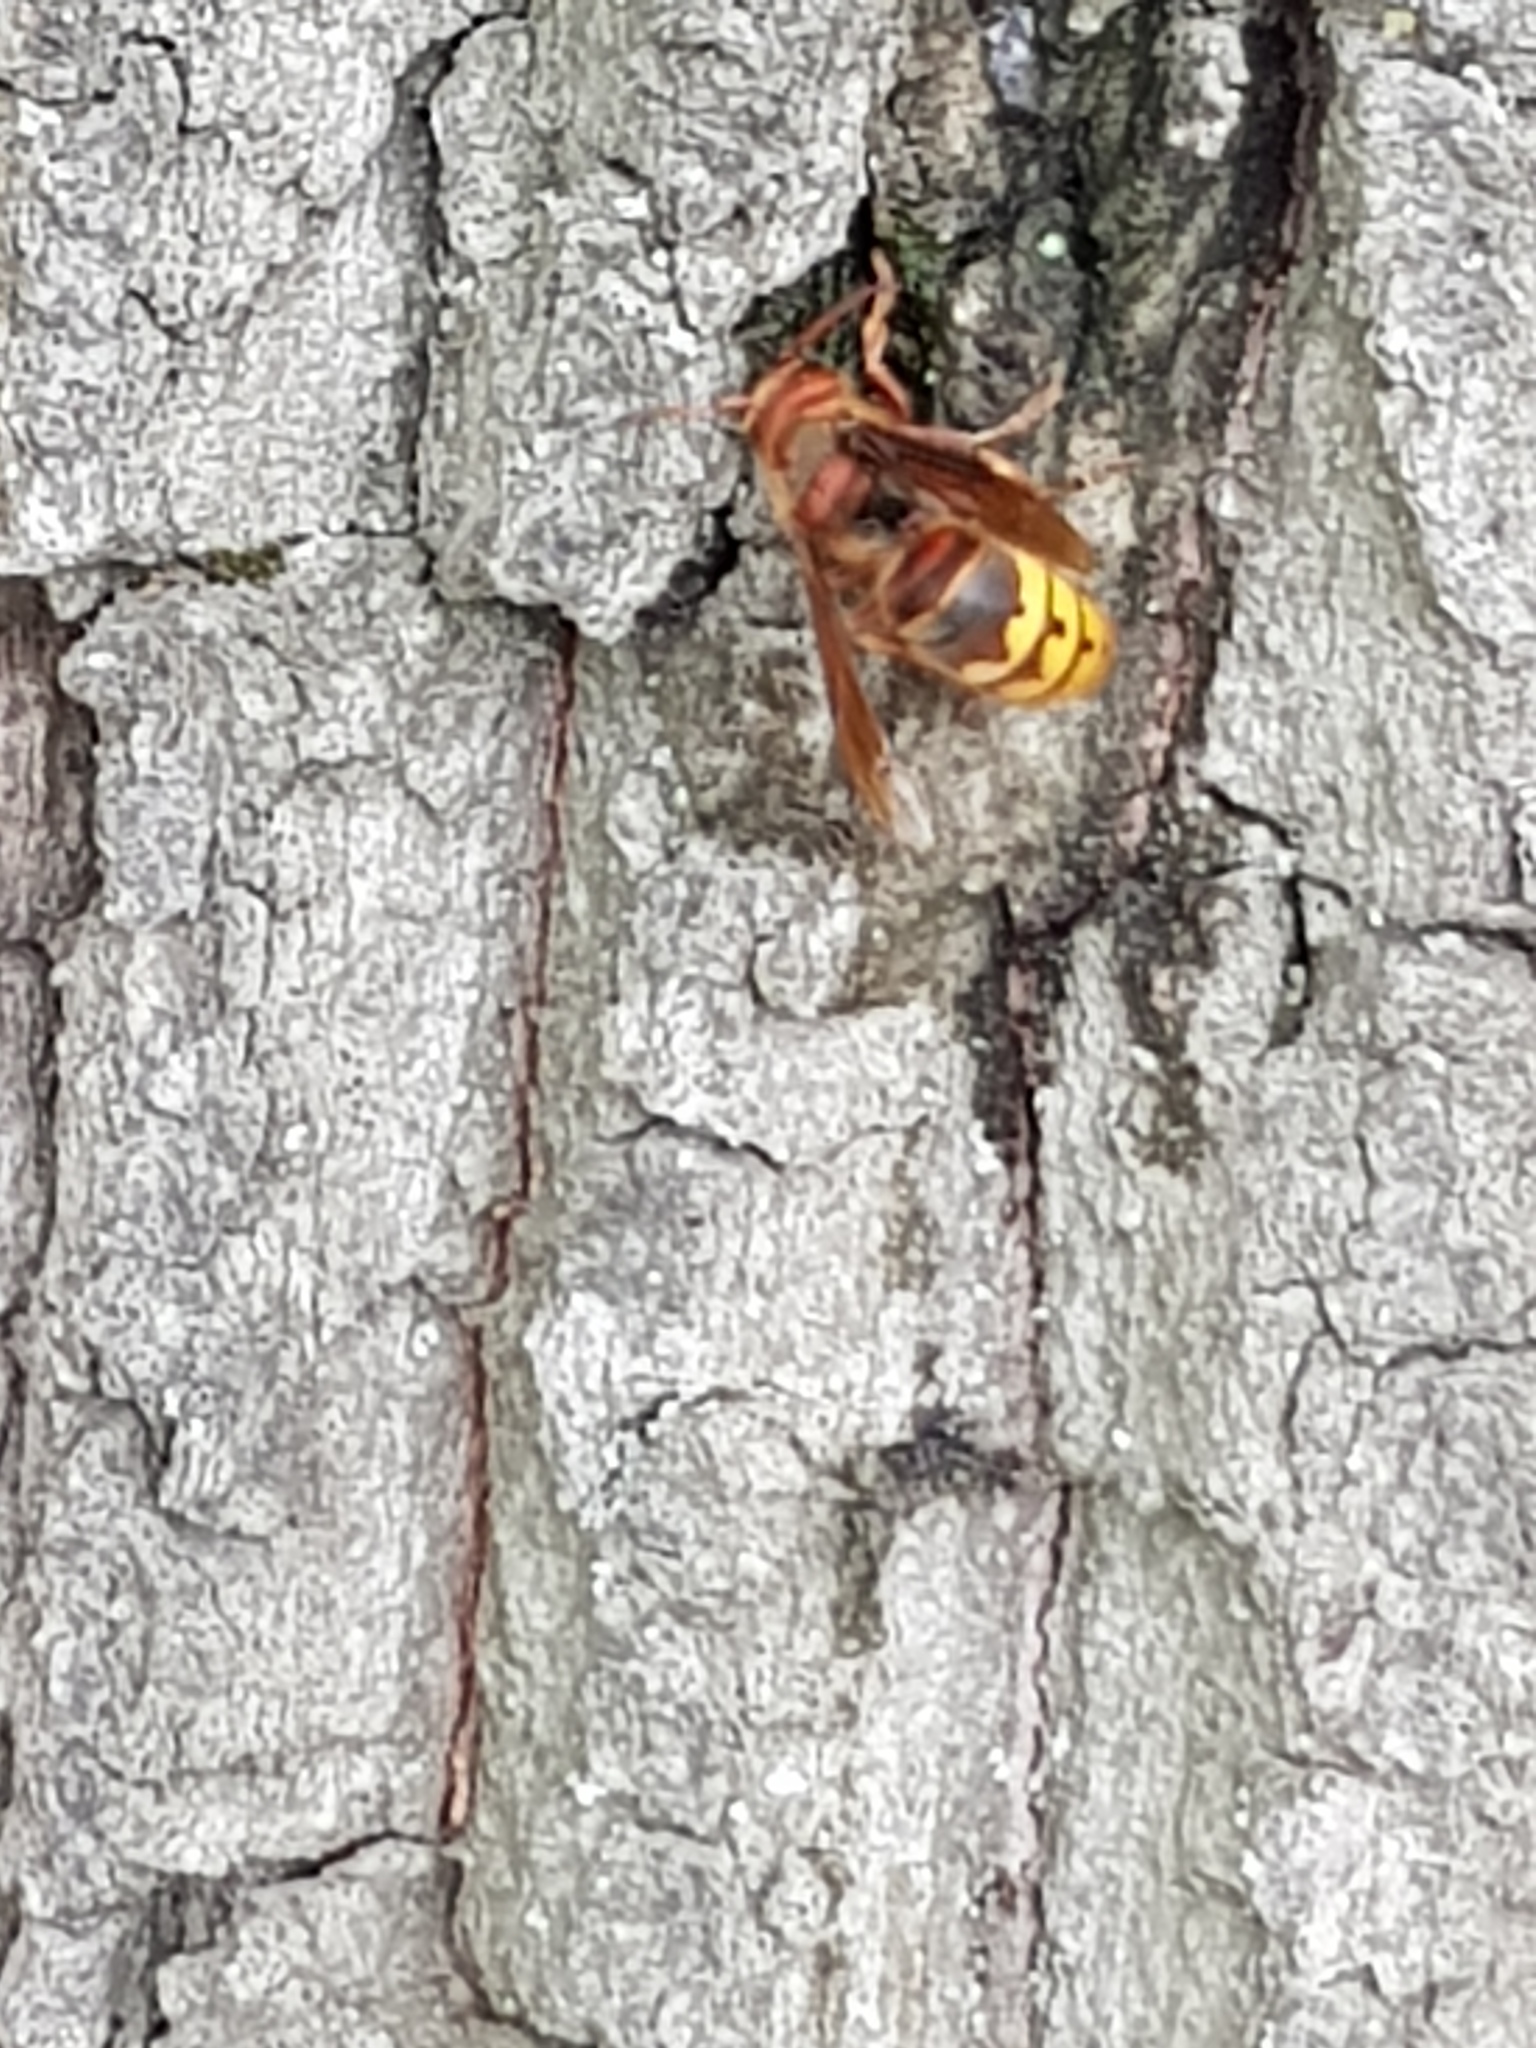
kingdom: Animalia
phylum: Arthropoda
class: Insecta
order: Hymenoptera
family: Vespidae
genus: Vespa
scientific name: Vespa crabro
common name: Hornet
